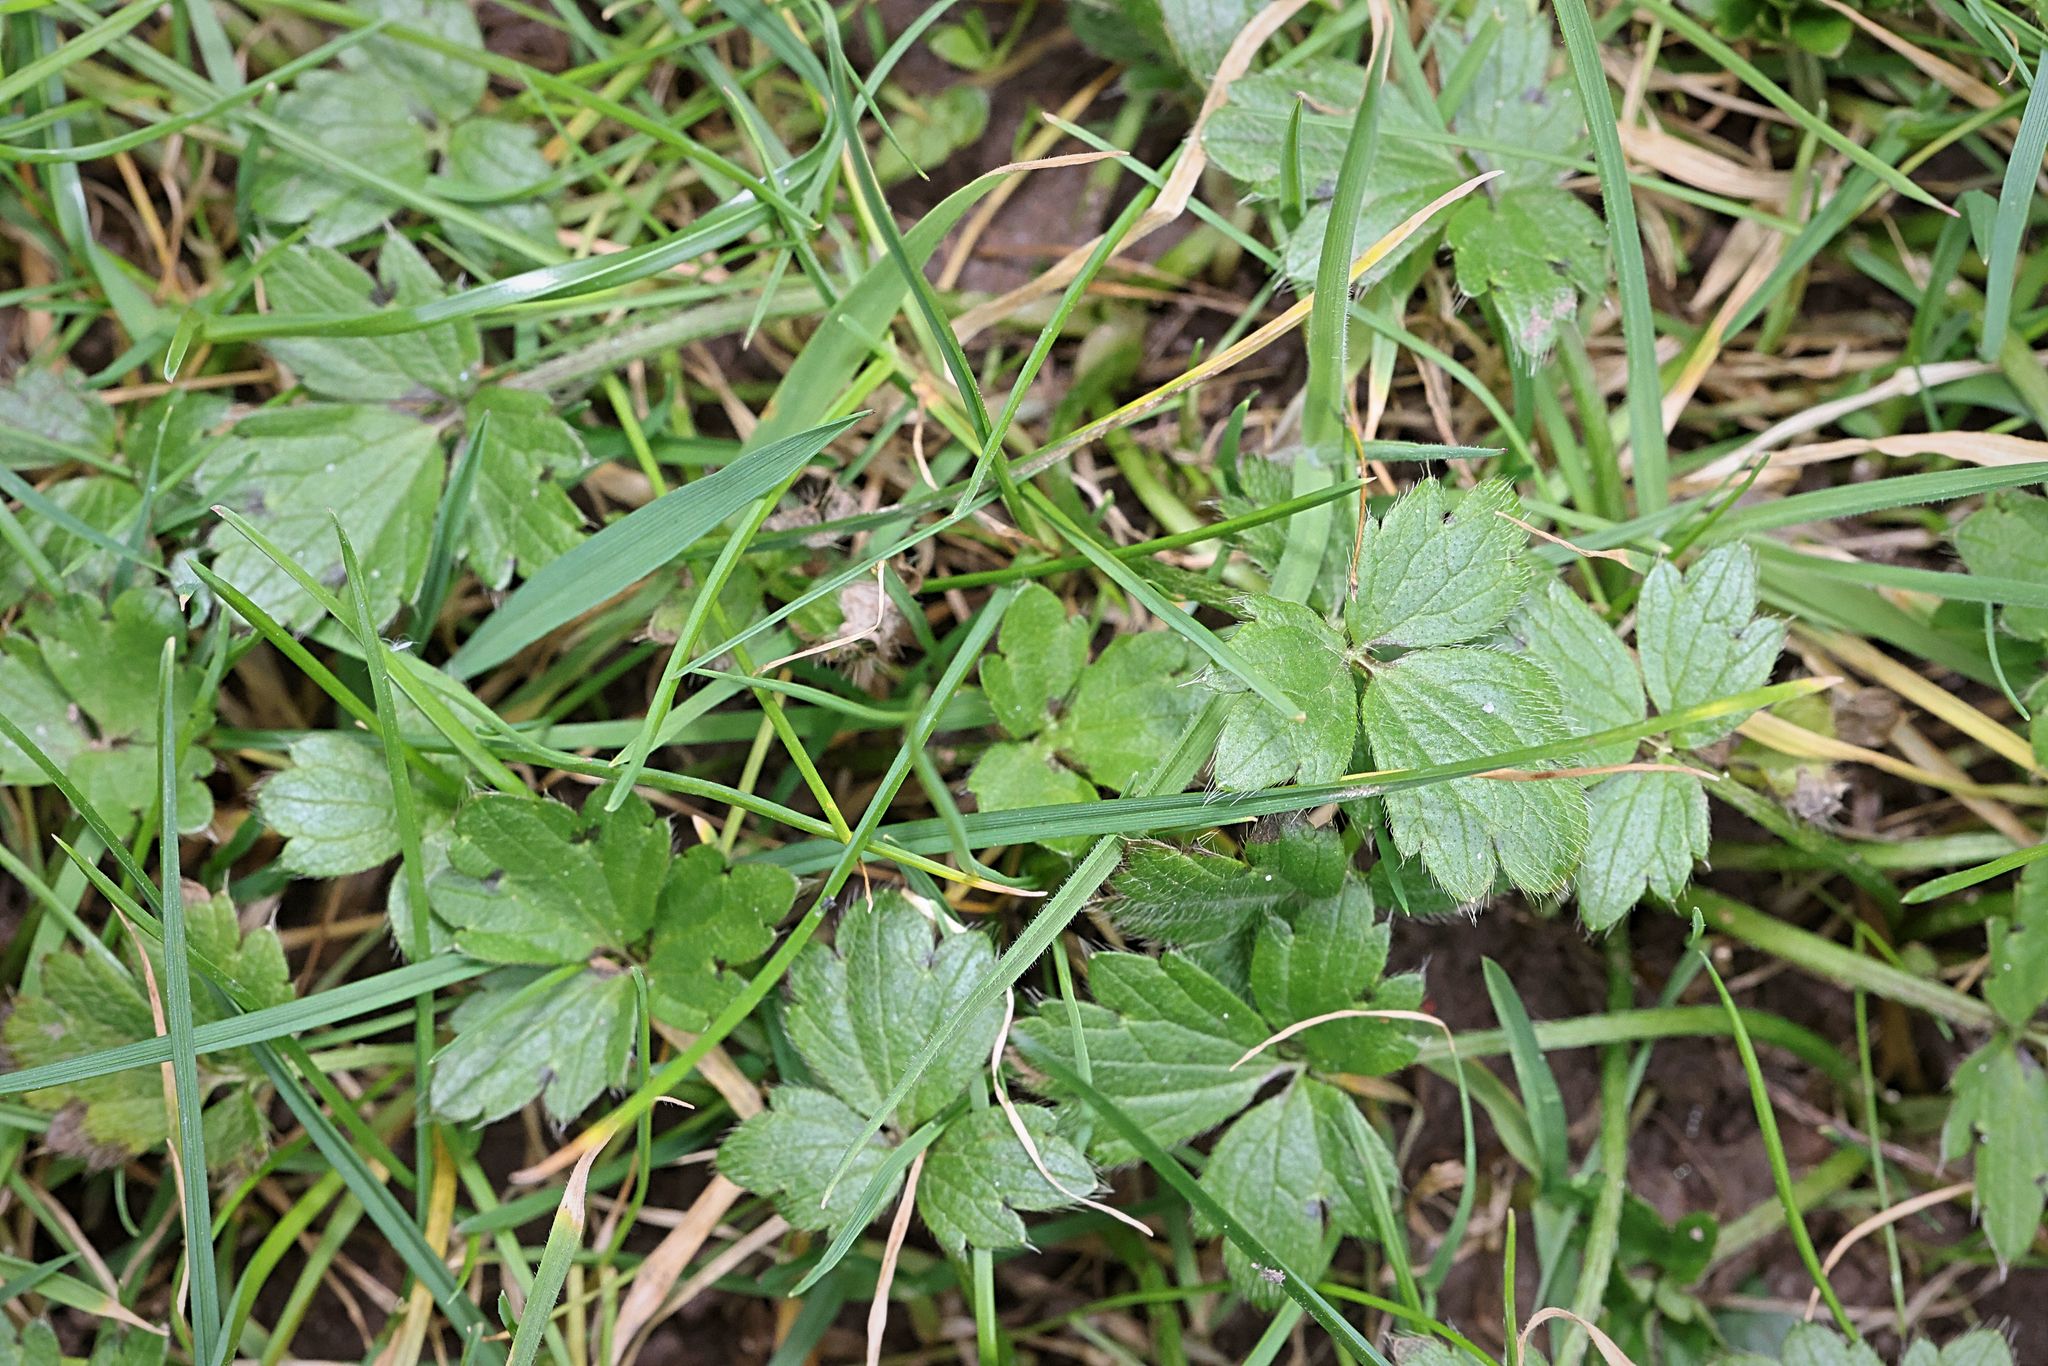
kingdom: Plantae
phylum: Tracheophyta
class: Magnoliopsida
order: Ranunculales
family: Ranunculaceae
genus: Ranunculus
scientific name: Ranunculus repens
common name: Creeping buttercup
